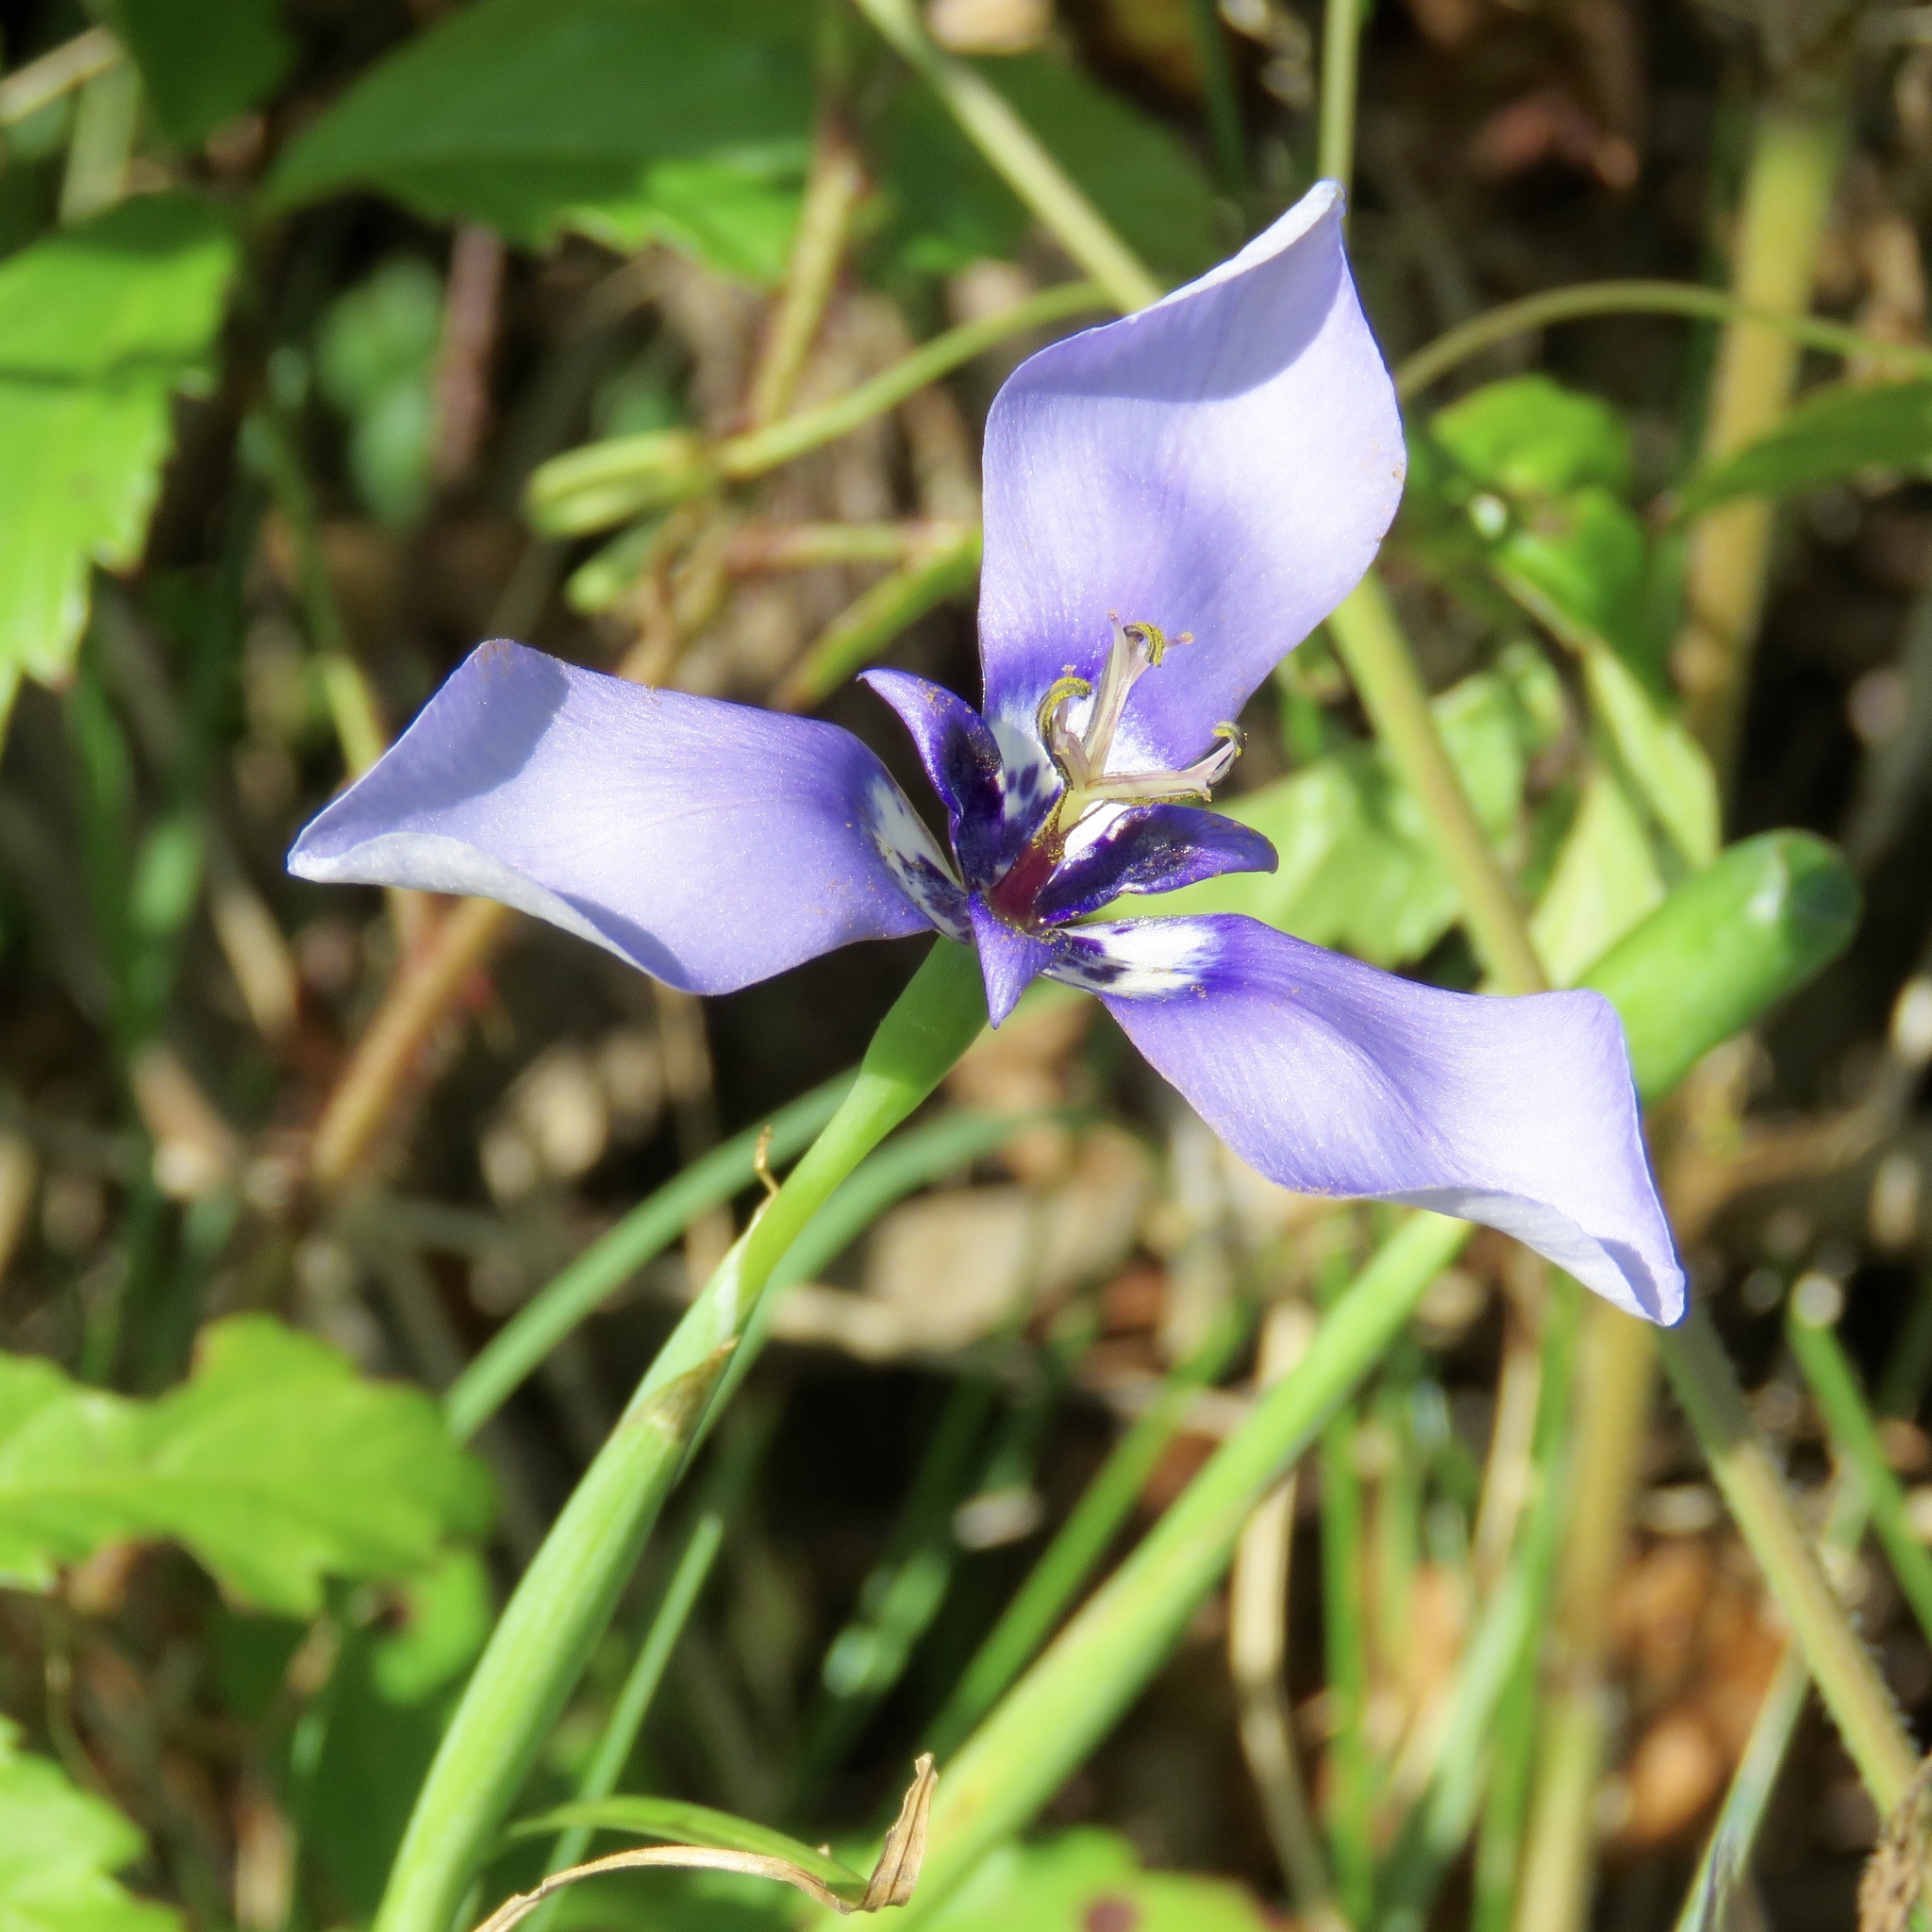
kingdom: Plantae
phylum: Tracheophyta
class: Liliopsida
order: Asparagales
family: Iridaceae
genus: Herbertia
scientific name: Herbertia lahue
